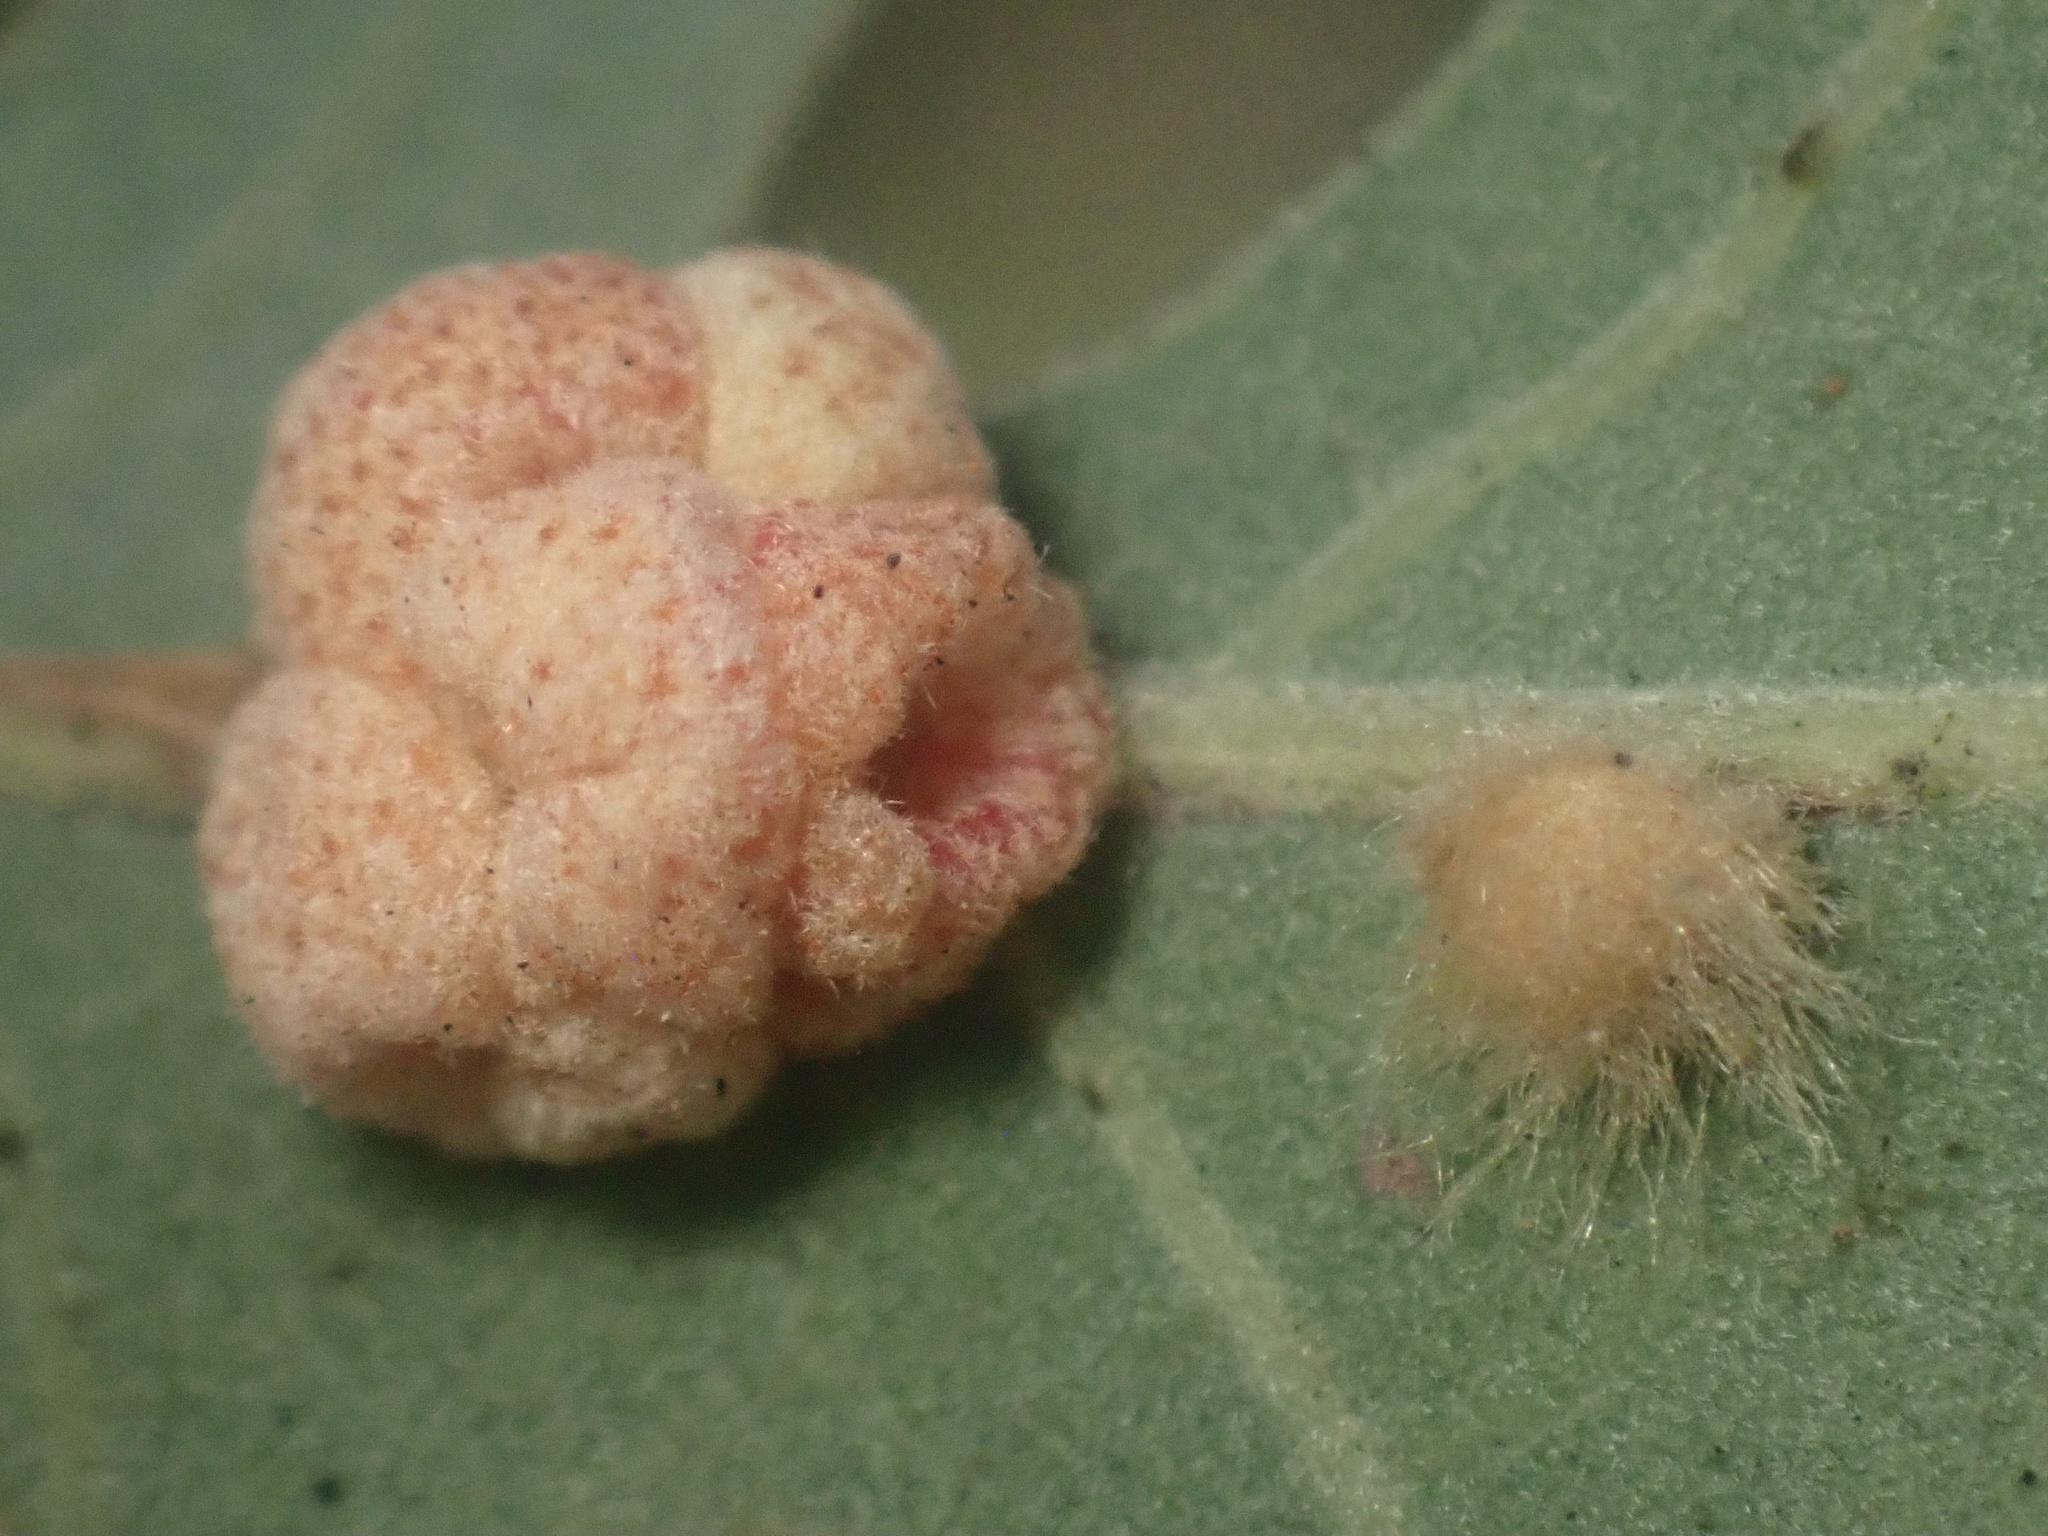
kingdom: Animalia
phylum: Arthropoda
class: Insecta
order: Hymenoptera
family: Cynipidae
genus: Andricus
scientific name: Andricus Druon fullawayi
